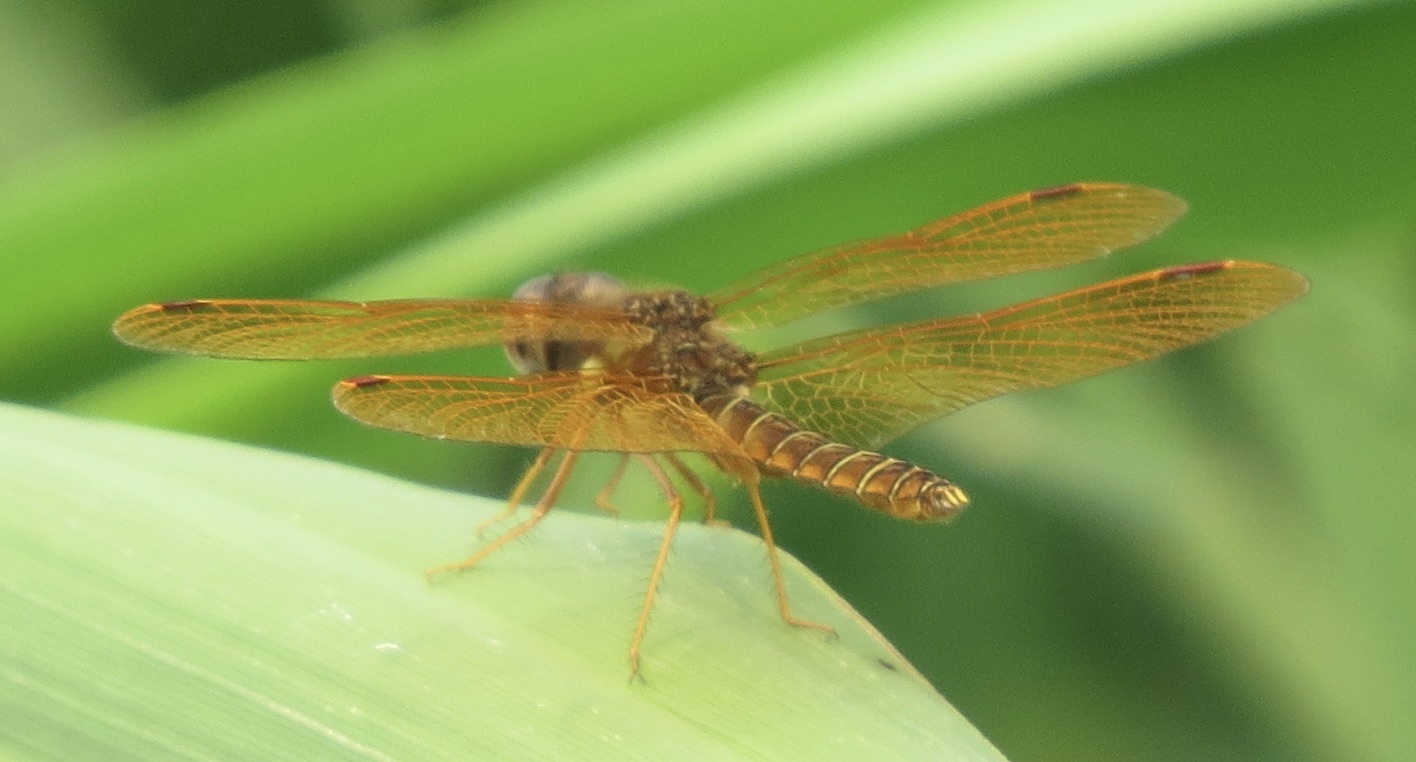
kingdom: Animalia
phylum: Arthropoda
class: Insecta
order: Odonata
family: Libellulidae
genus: Perithemis
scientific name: Perithemis tenera
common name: Eastern amberwing
